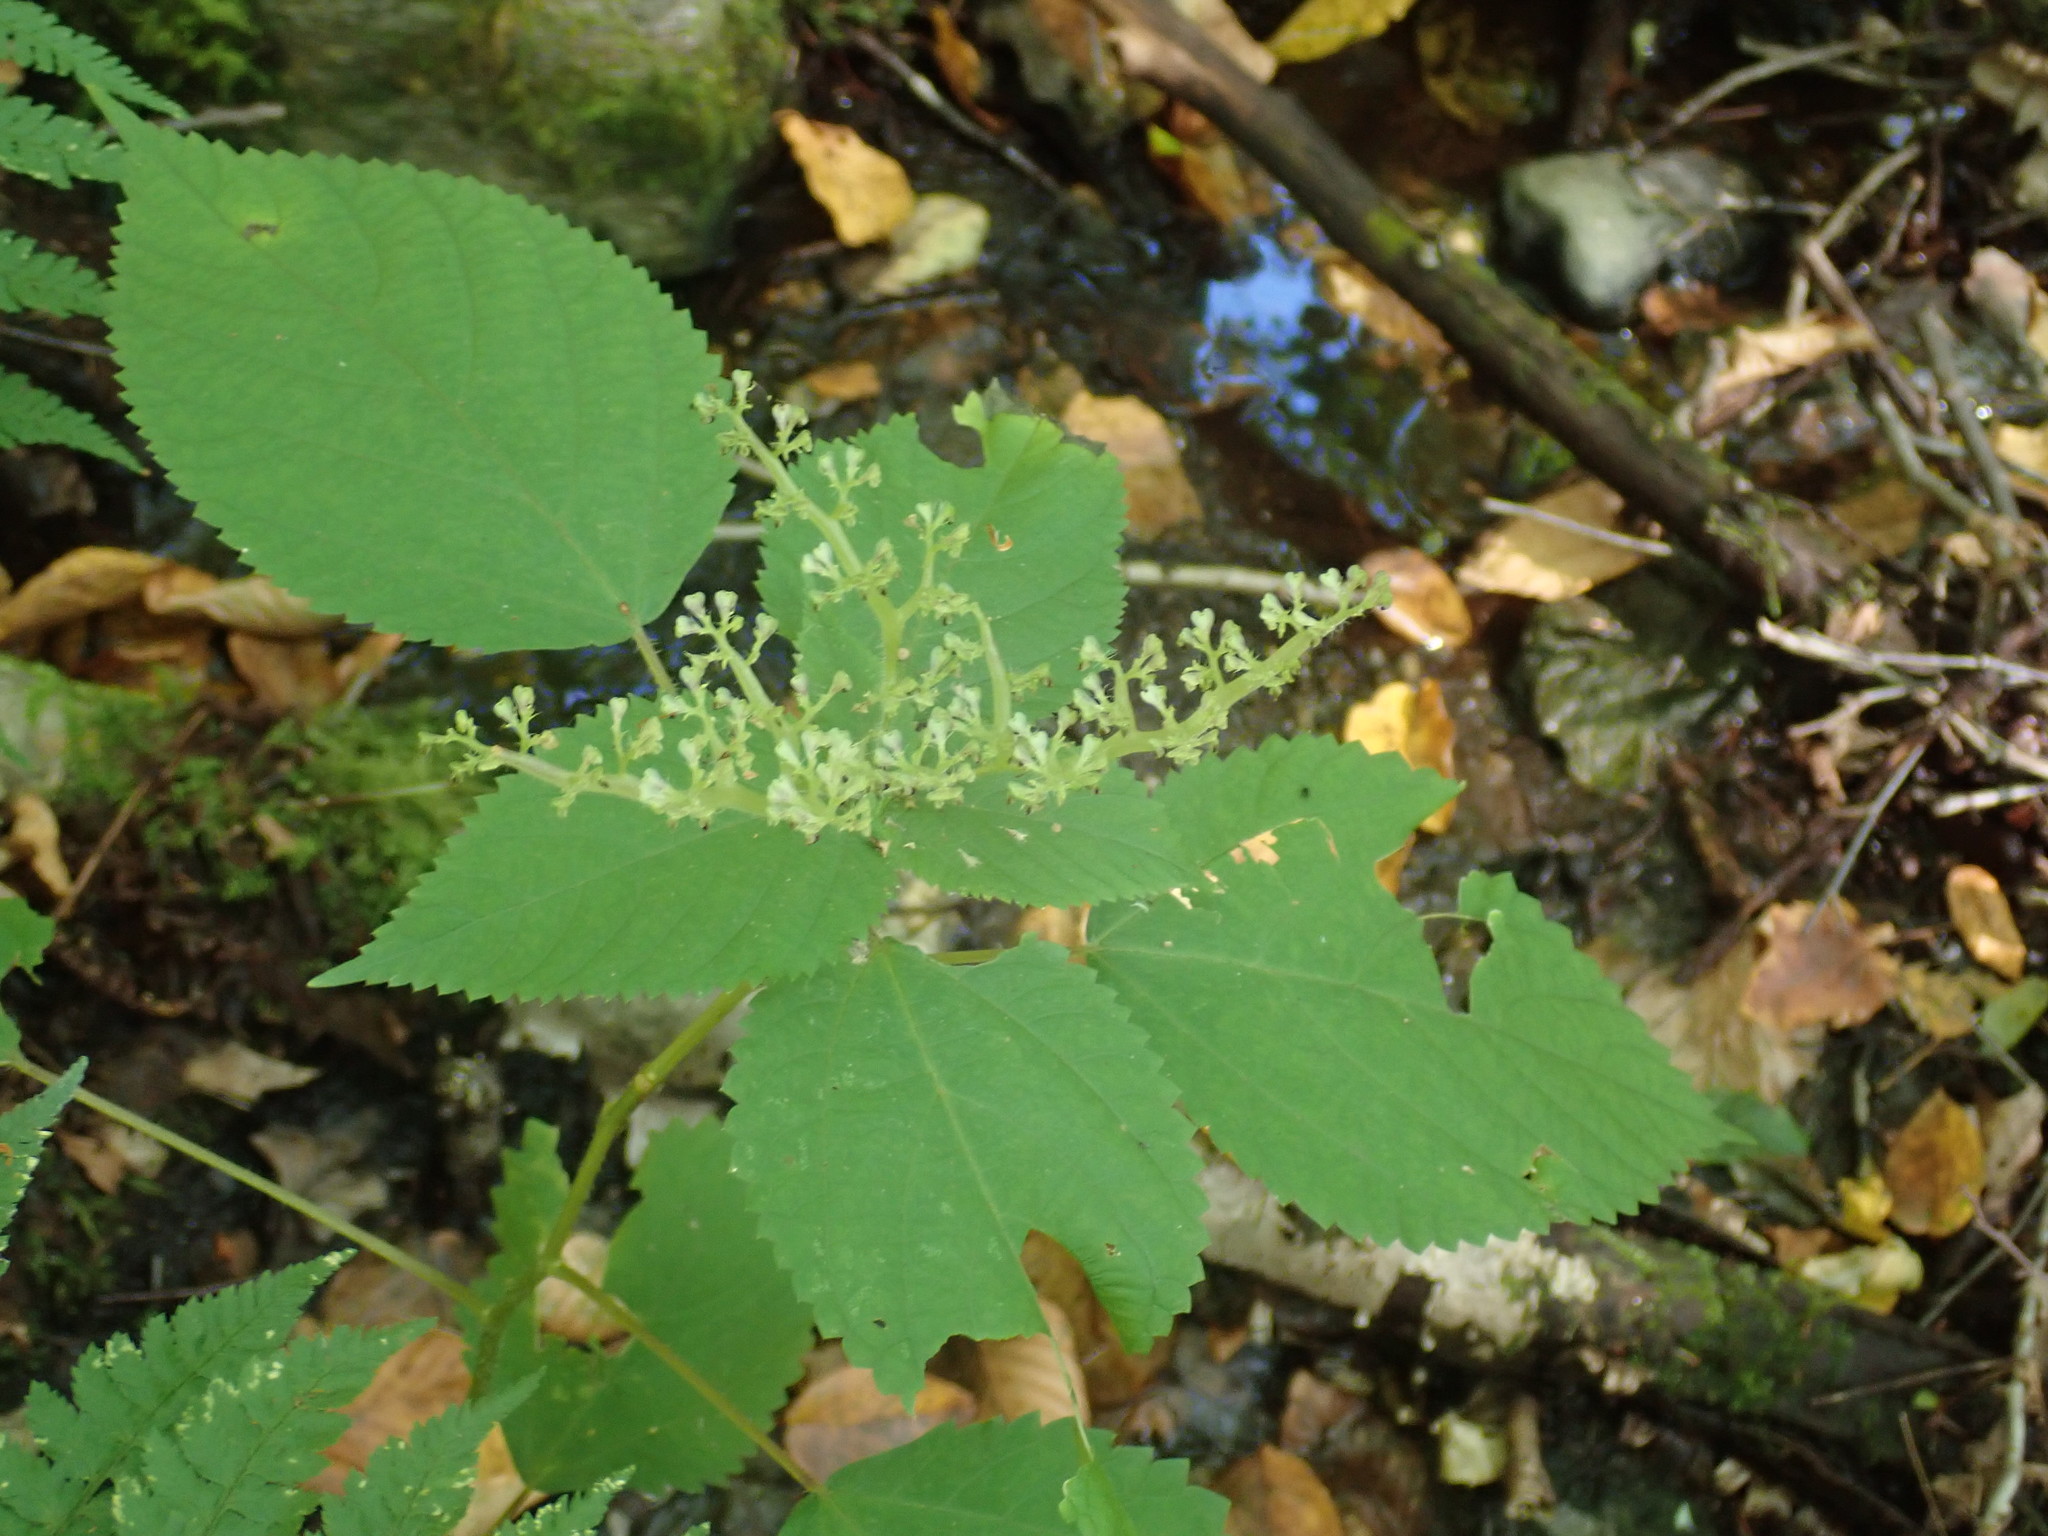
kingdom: Plantae
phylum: Tracheophyta
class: Magnoliopsida
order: Rosales
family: Urticaceae
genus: Laportea
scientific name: Laportea canadensis
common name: Canada nettle
